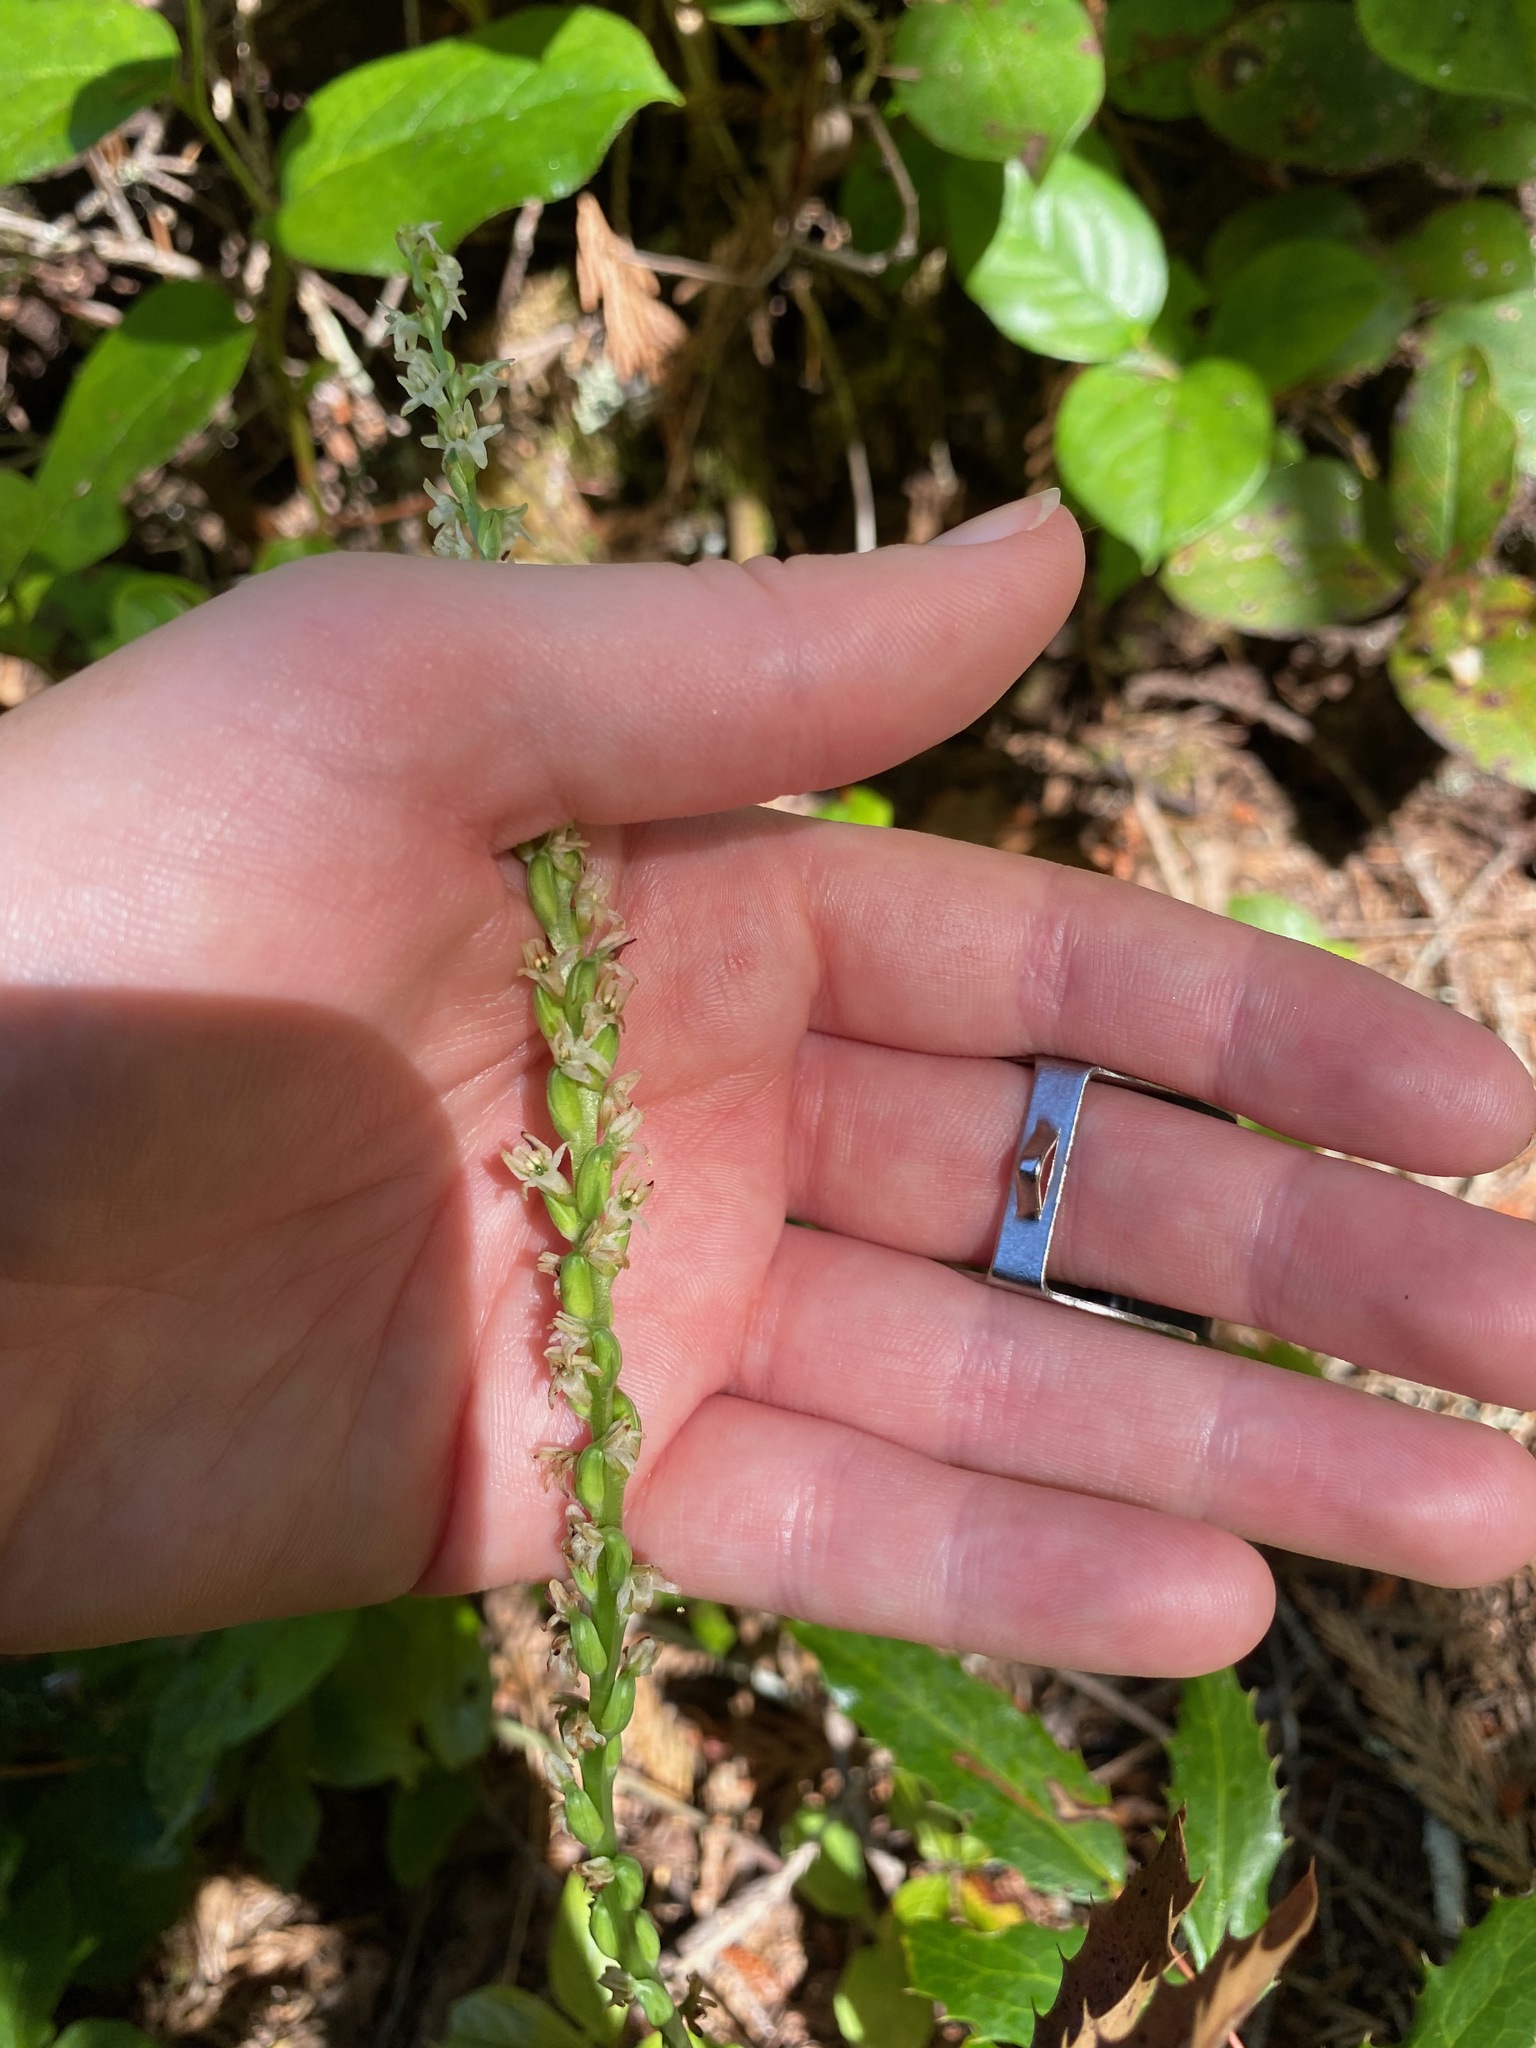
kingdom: Plantae
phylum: Tracheophyta
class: Liliopsida
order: Asparagales
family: Orchidaceae
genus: Platanthera
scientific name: Platanthera ephemerantha
